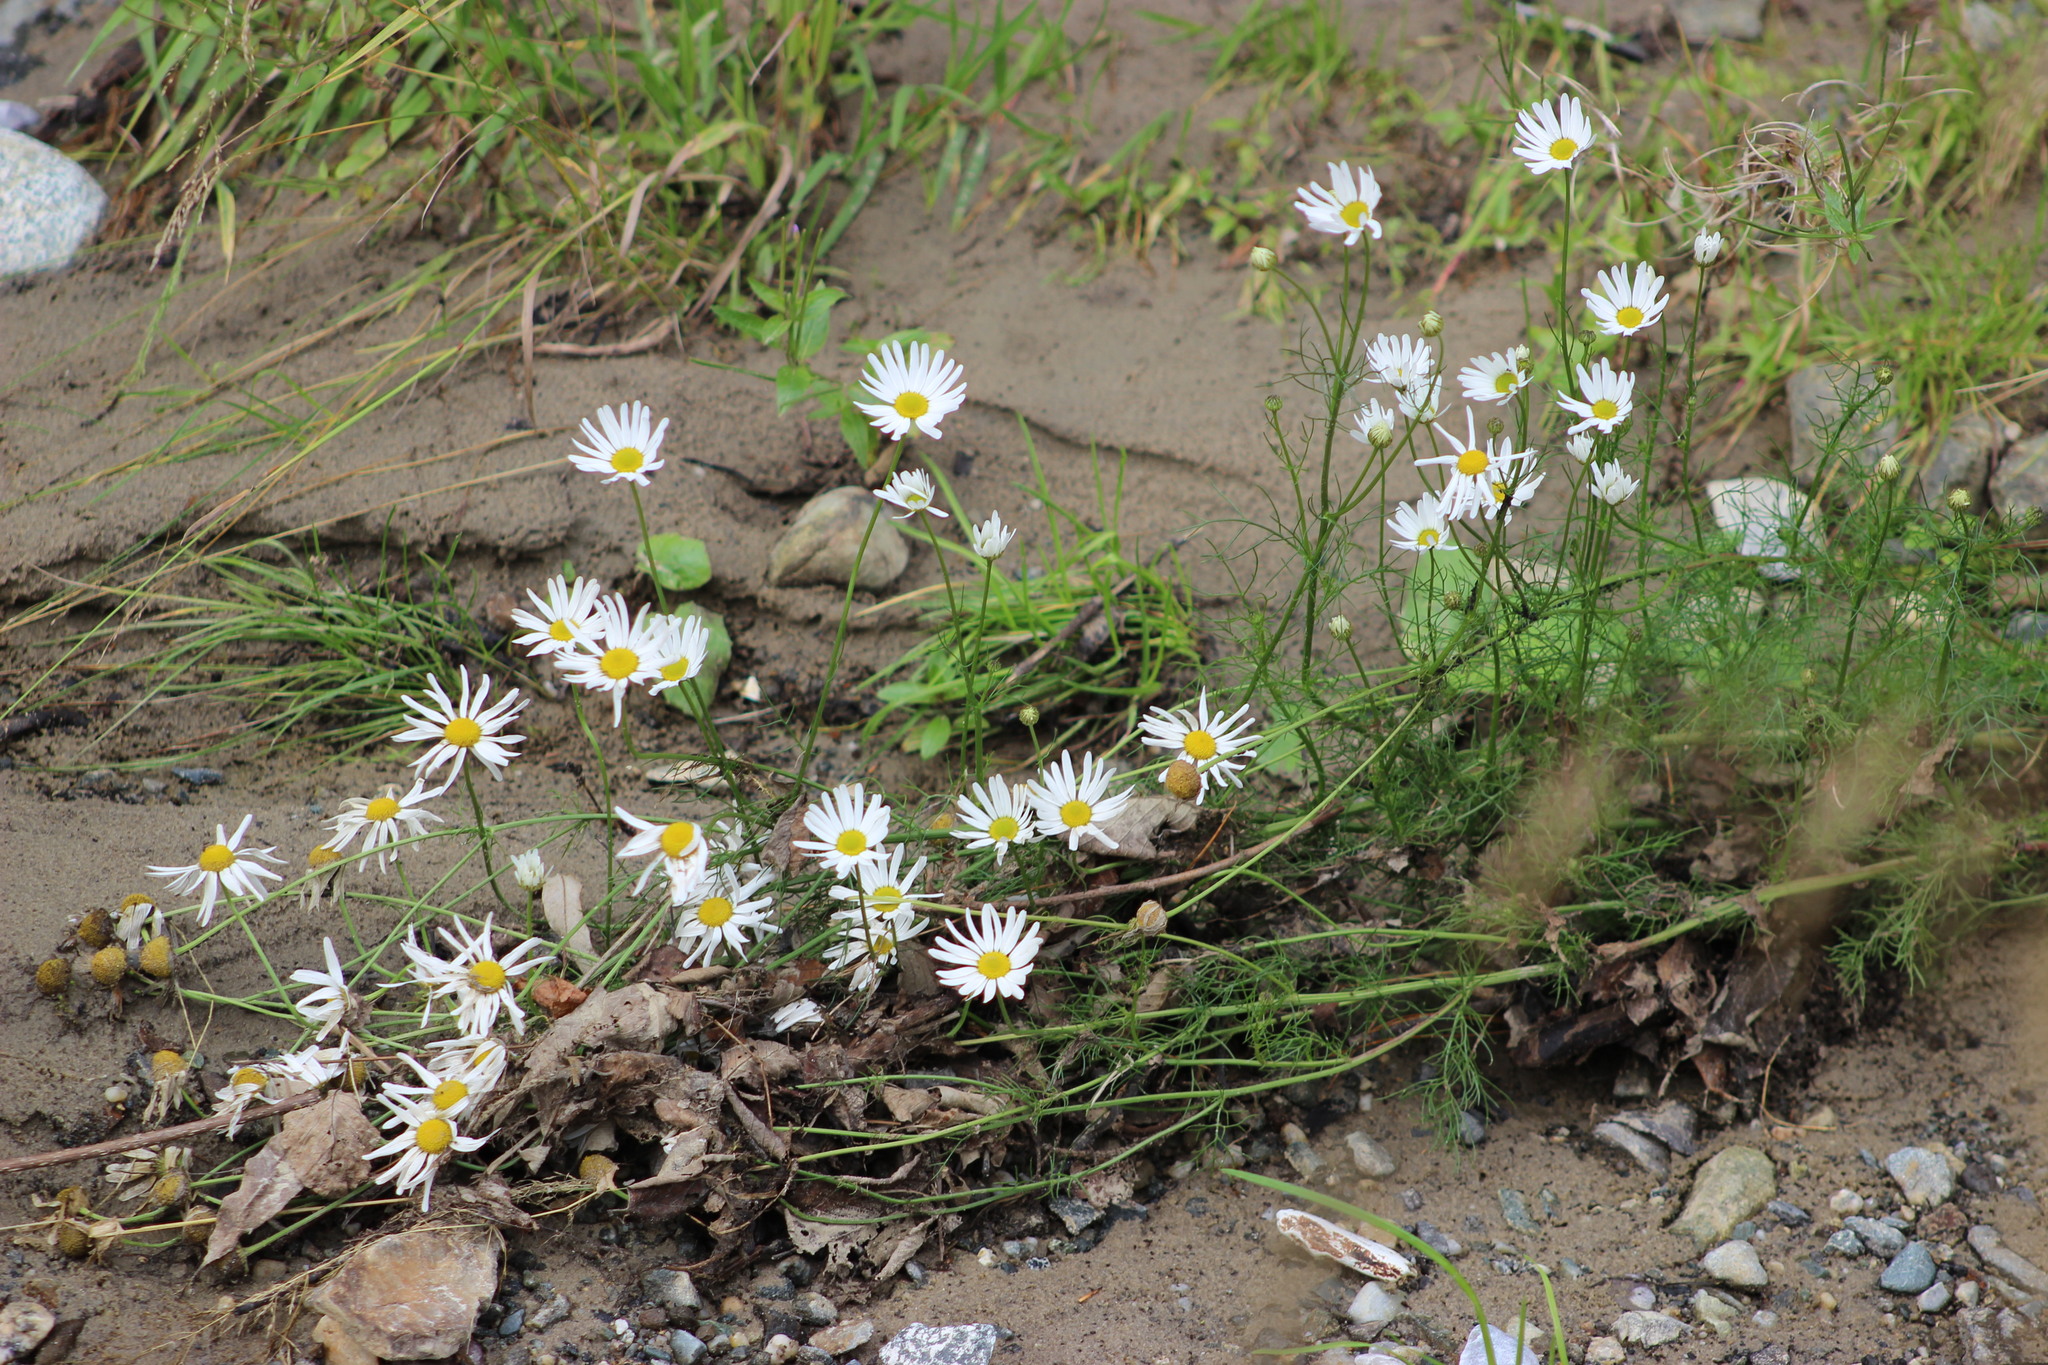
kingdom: Plantae
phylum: Tracheophyta
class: Magnoliopsida
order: Asterales
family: Asteraceae
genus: Tripleurospermum
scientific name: Tripleurospermum inodorum
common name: Scentless mayweed
